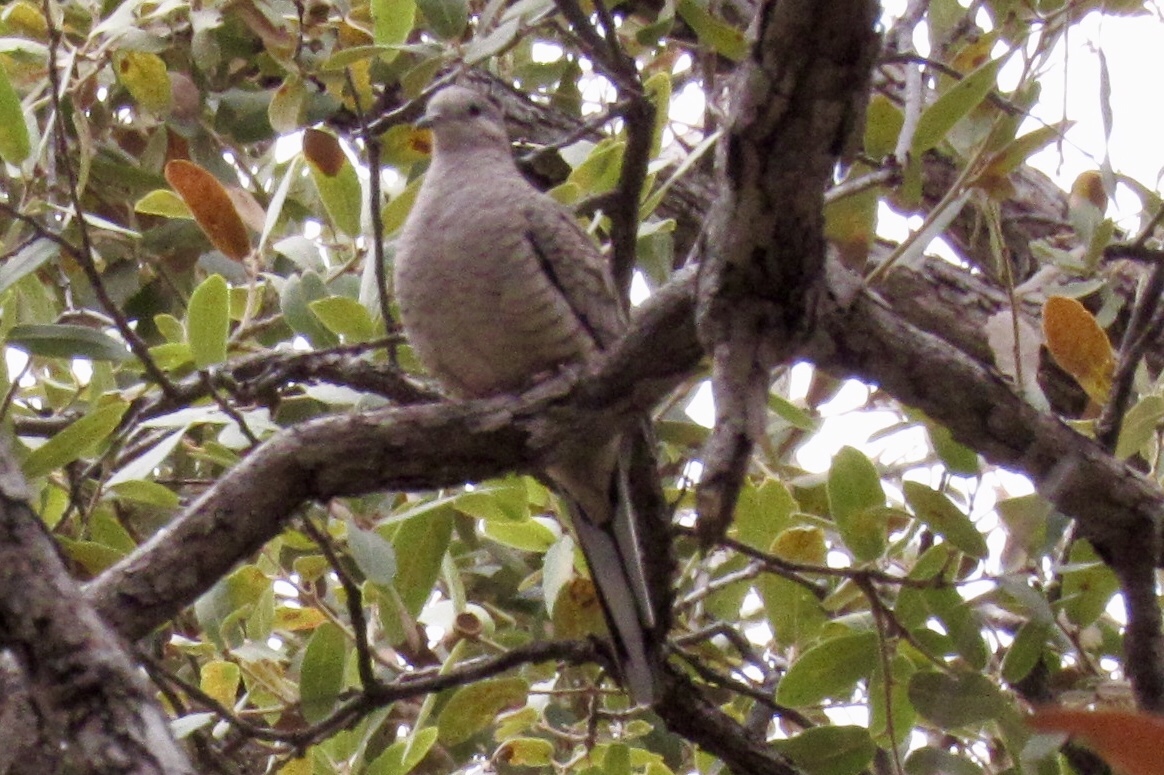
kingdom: Animalia
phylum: Chordata
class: Aves
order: Columbiformes
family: Columbidae
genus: Columbina
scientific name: Columbina inca
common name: Inca dove
